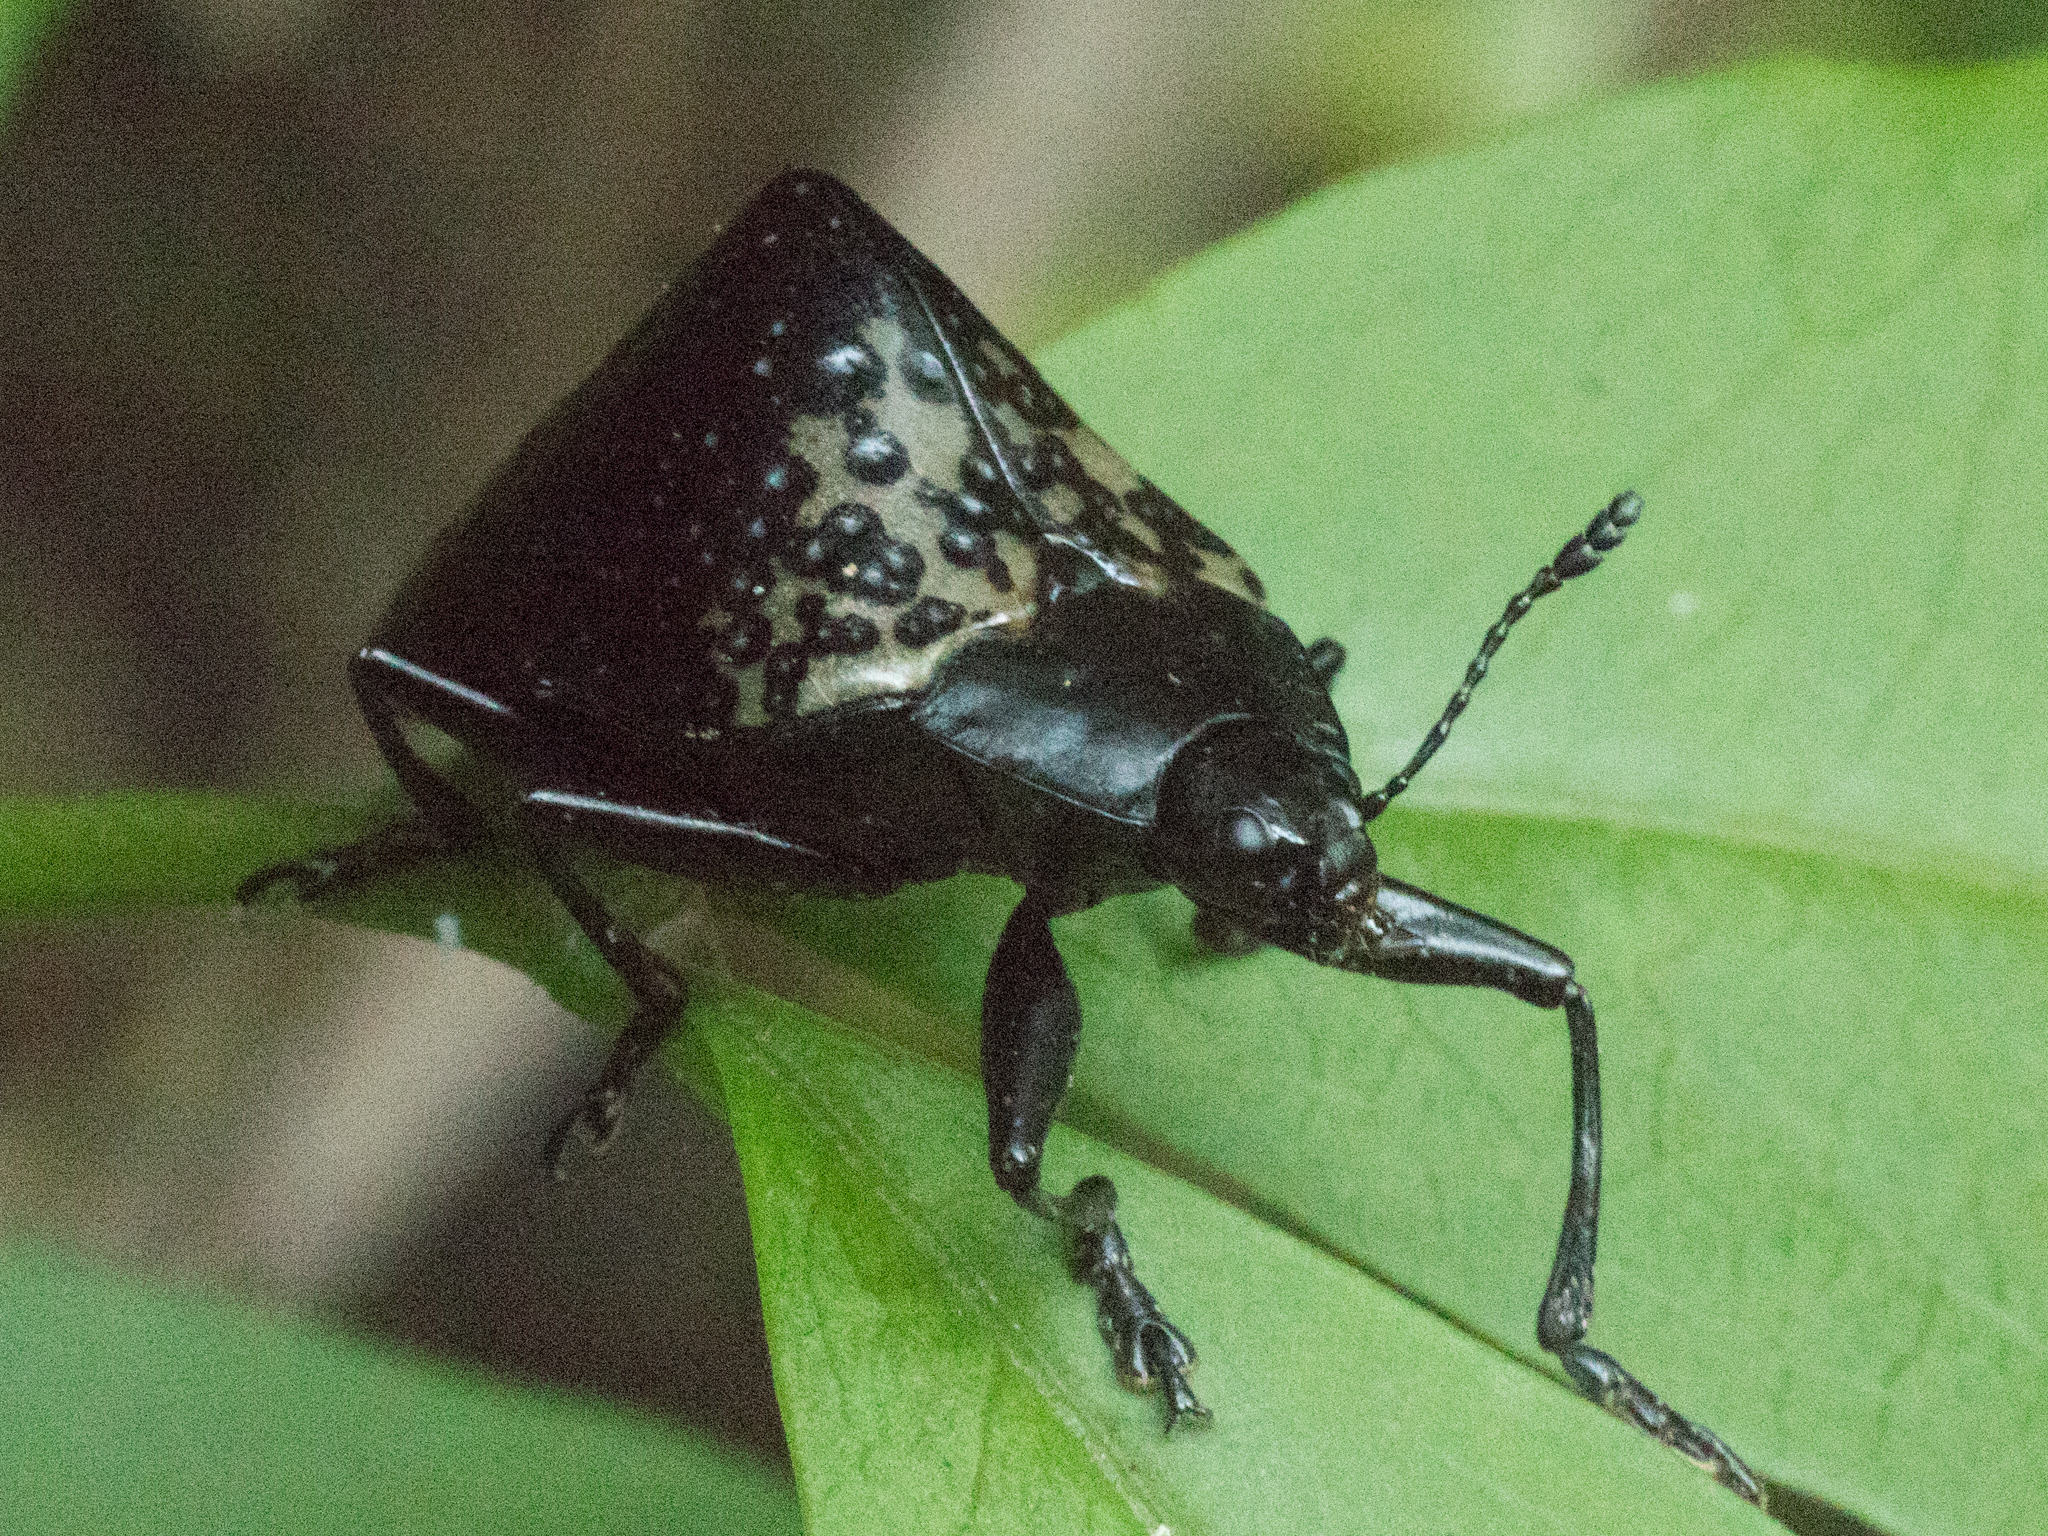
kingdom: Animalia
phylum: Arthropoda
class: Insecta
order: Coleoptera
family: Erotylidae
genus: Gibbifer
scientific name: Gibbifer
